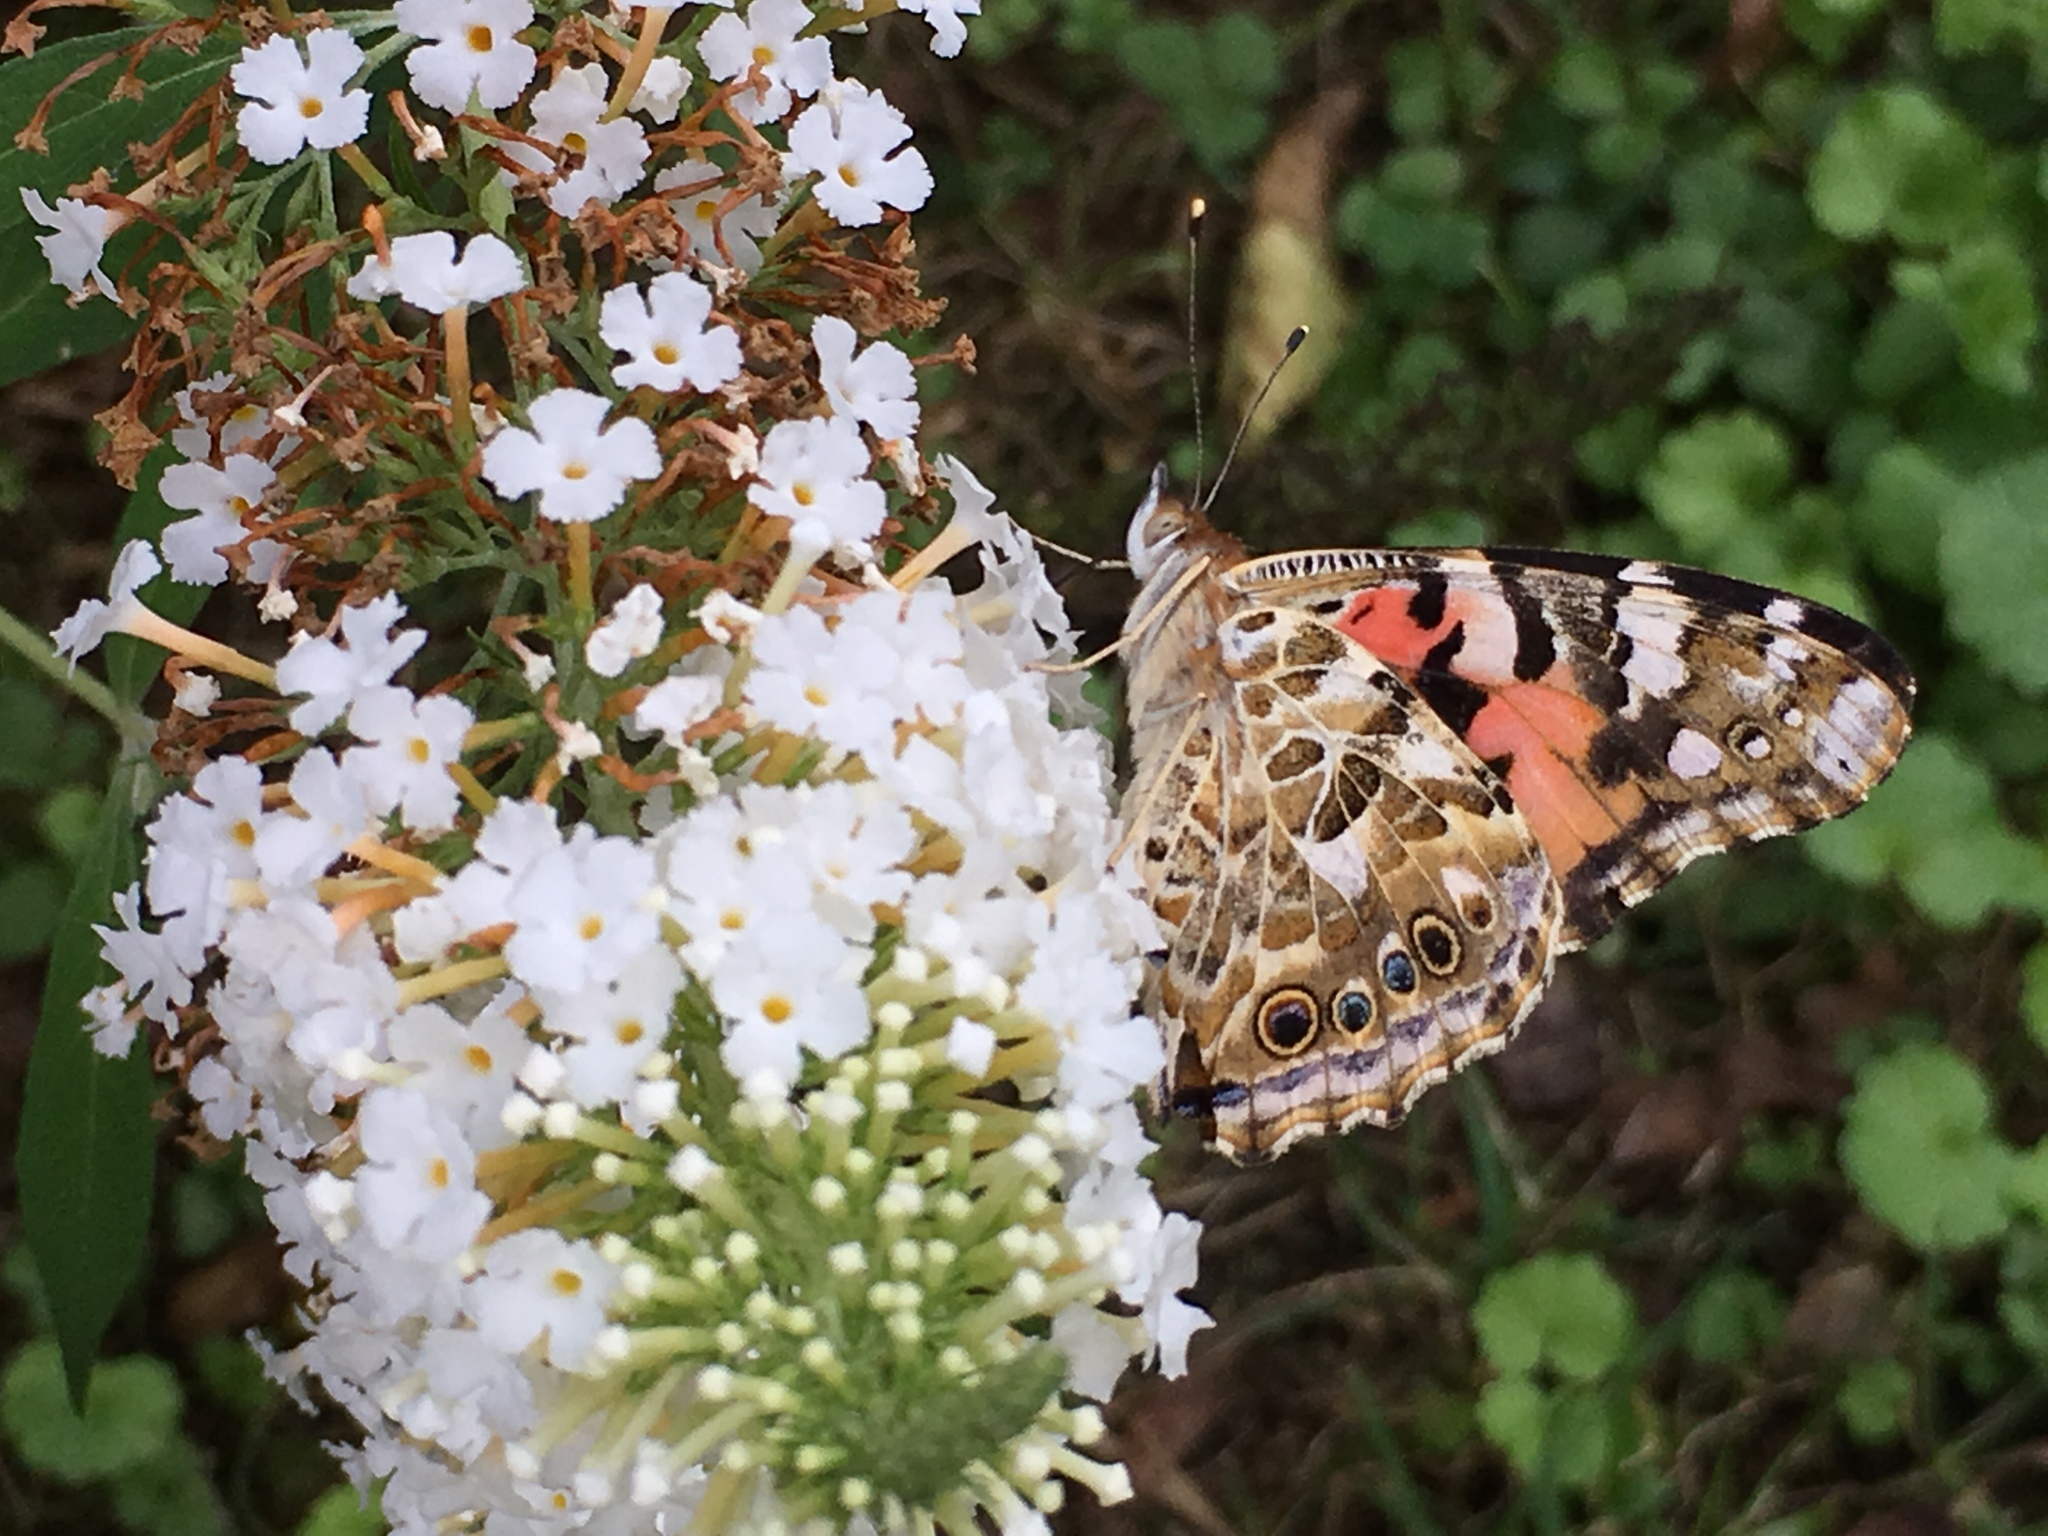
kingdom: Animalia
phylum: Arthropoda
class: Insecta
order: Lepidoptera
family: Nymphalidae
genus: Vanessa
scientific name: Vanessa cardui
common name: Painted lady
